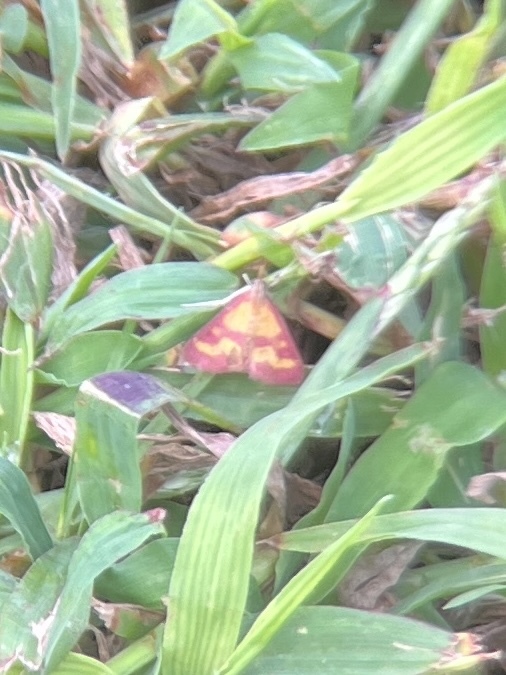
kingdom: Animalia
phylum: Arthropoda
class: Insecta
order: Lepidoptera
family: Crambidae
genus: Pyrausta
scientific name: Pyrausta laticlavia
